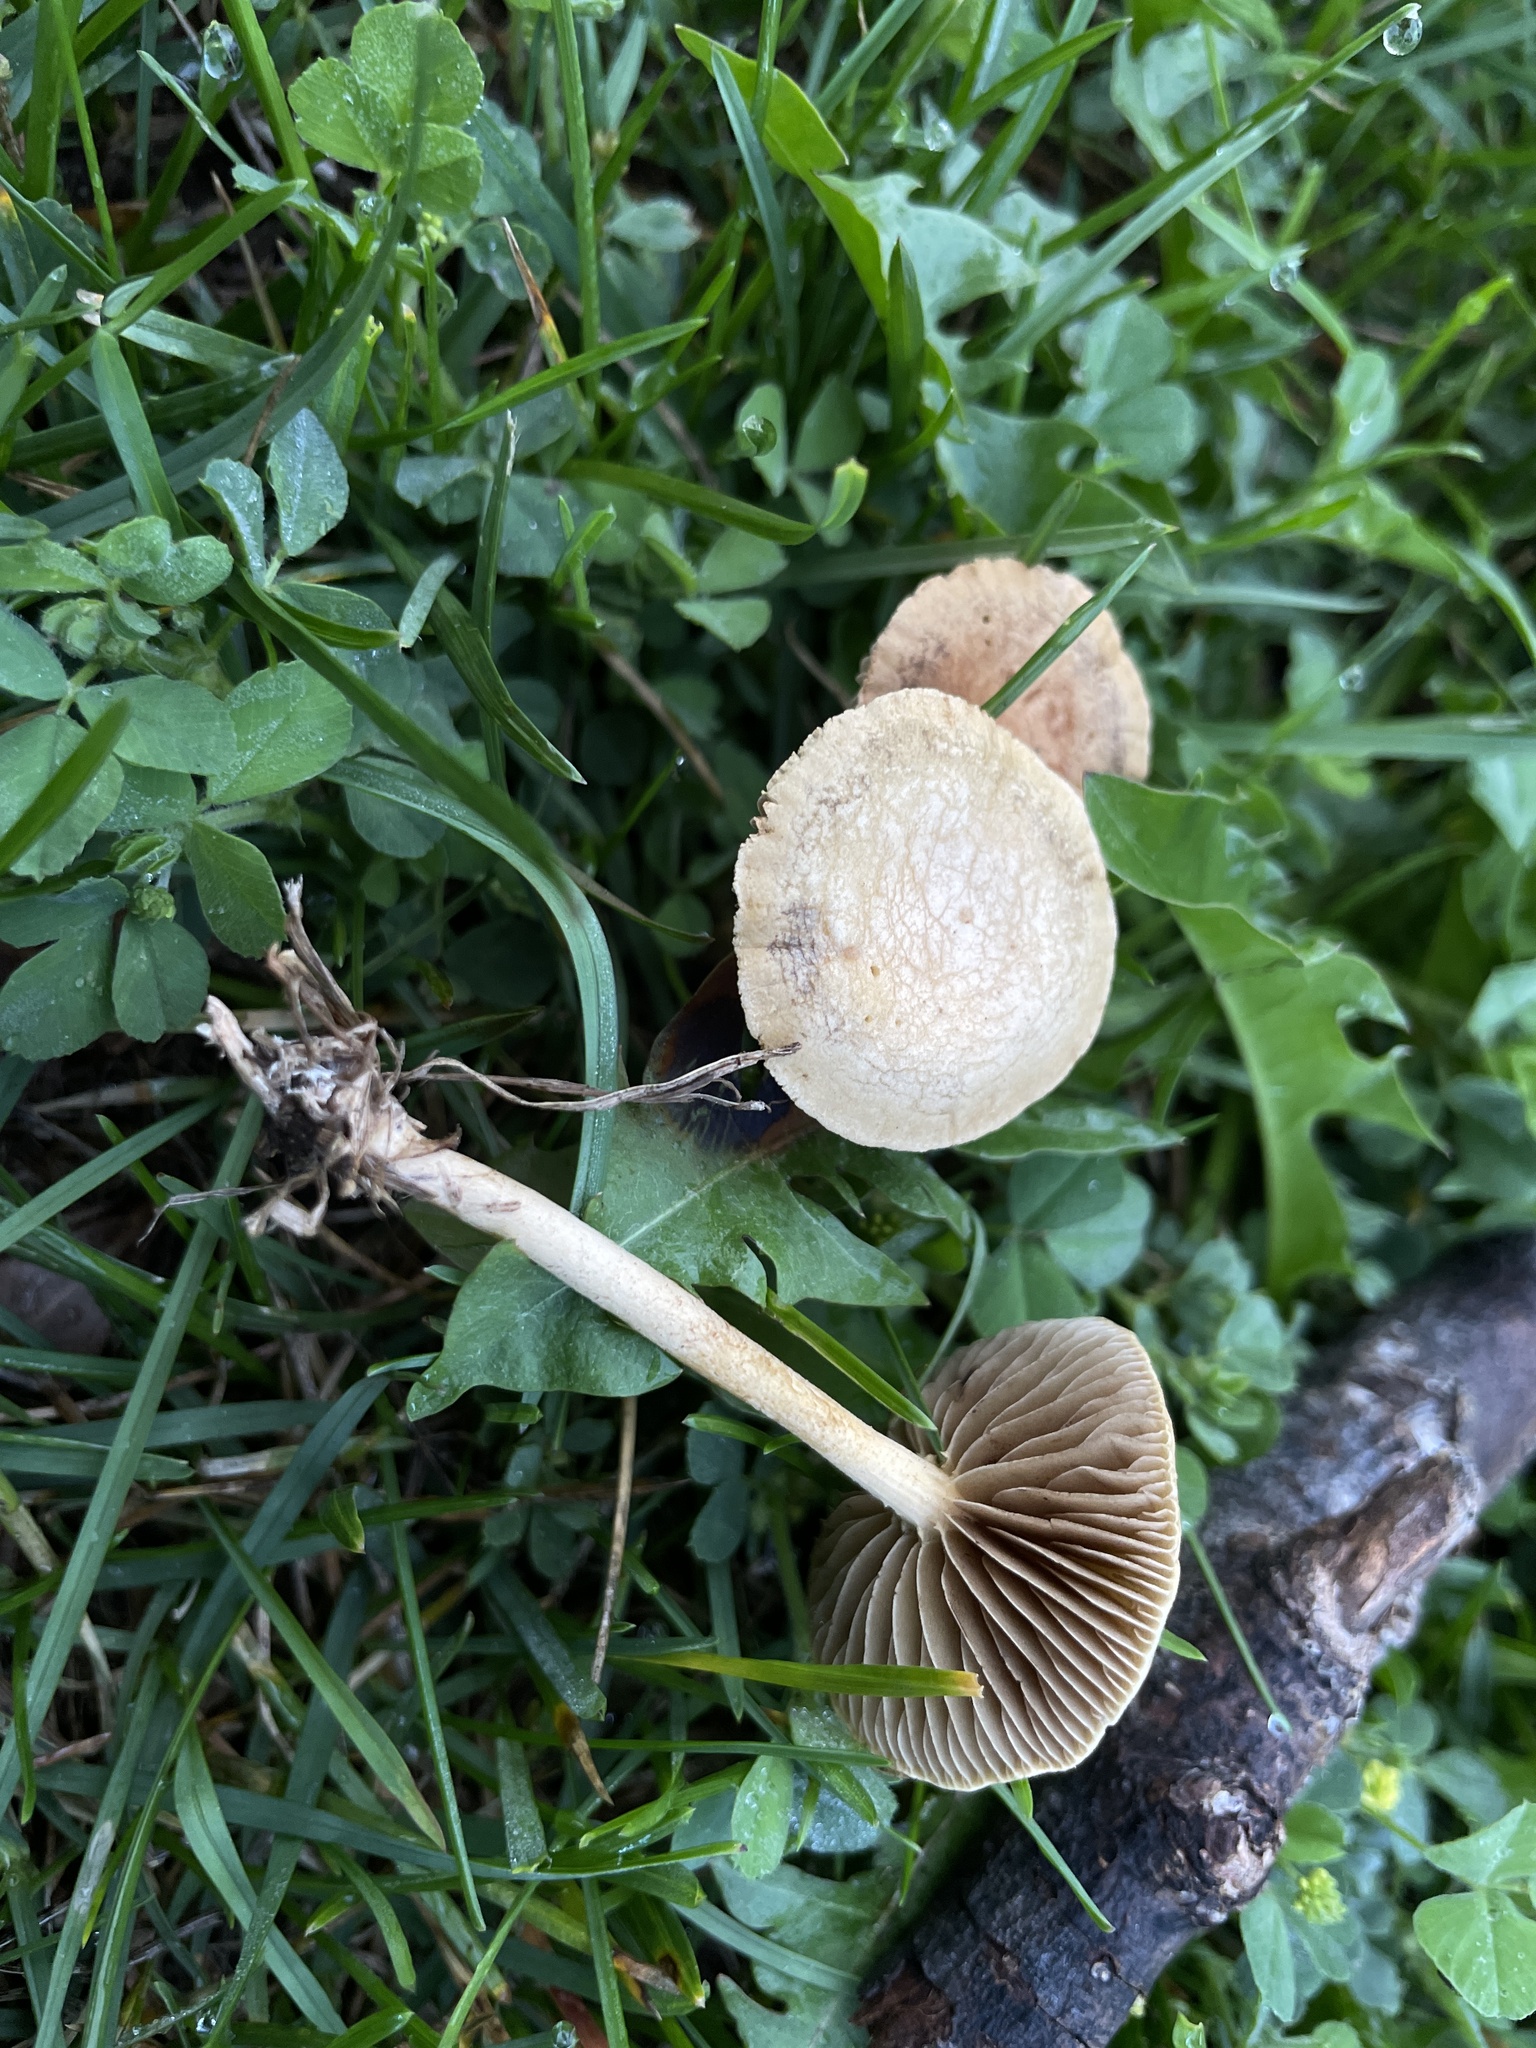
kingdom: Fungi
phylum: Basidiomycota
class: Agaricomycetes
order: Agaricales
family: Strophariaceae
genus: Agrocybe
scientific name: Agrocybe pediades
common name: Common fieldcap
